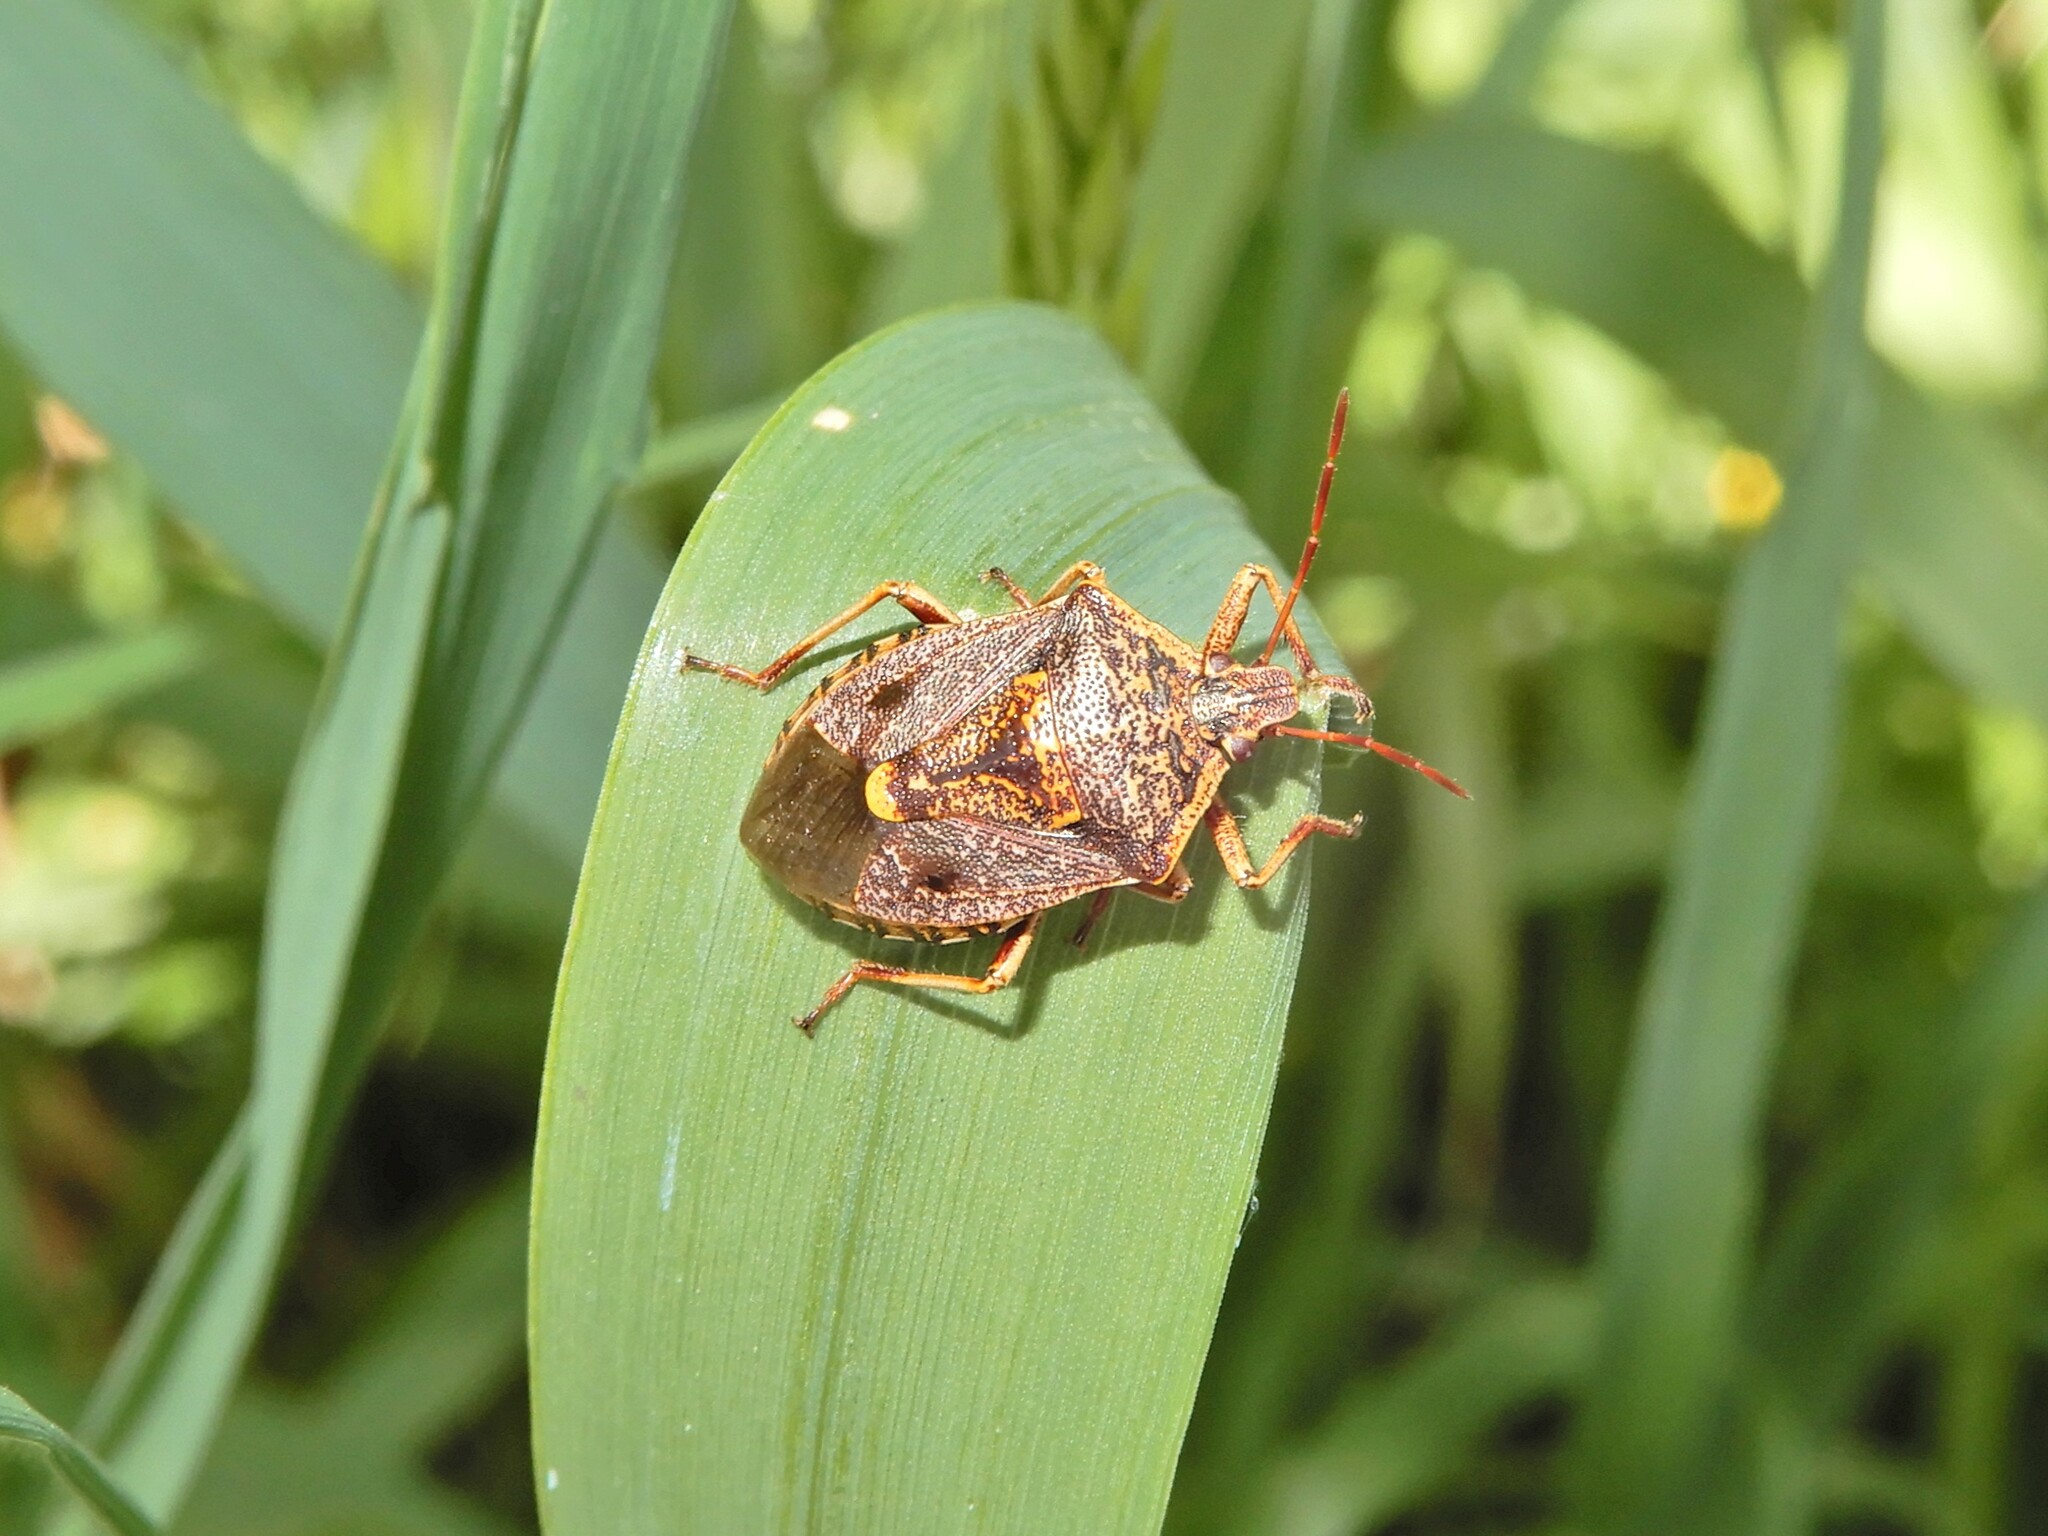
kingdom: Animalia
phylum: Arthropoda
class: Insecta
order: Hemiptera
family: Pentatomidae
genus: Cermatulus
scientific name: Cermatulus nasalis
